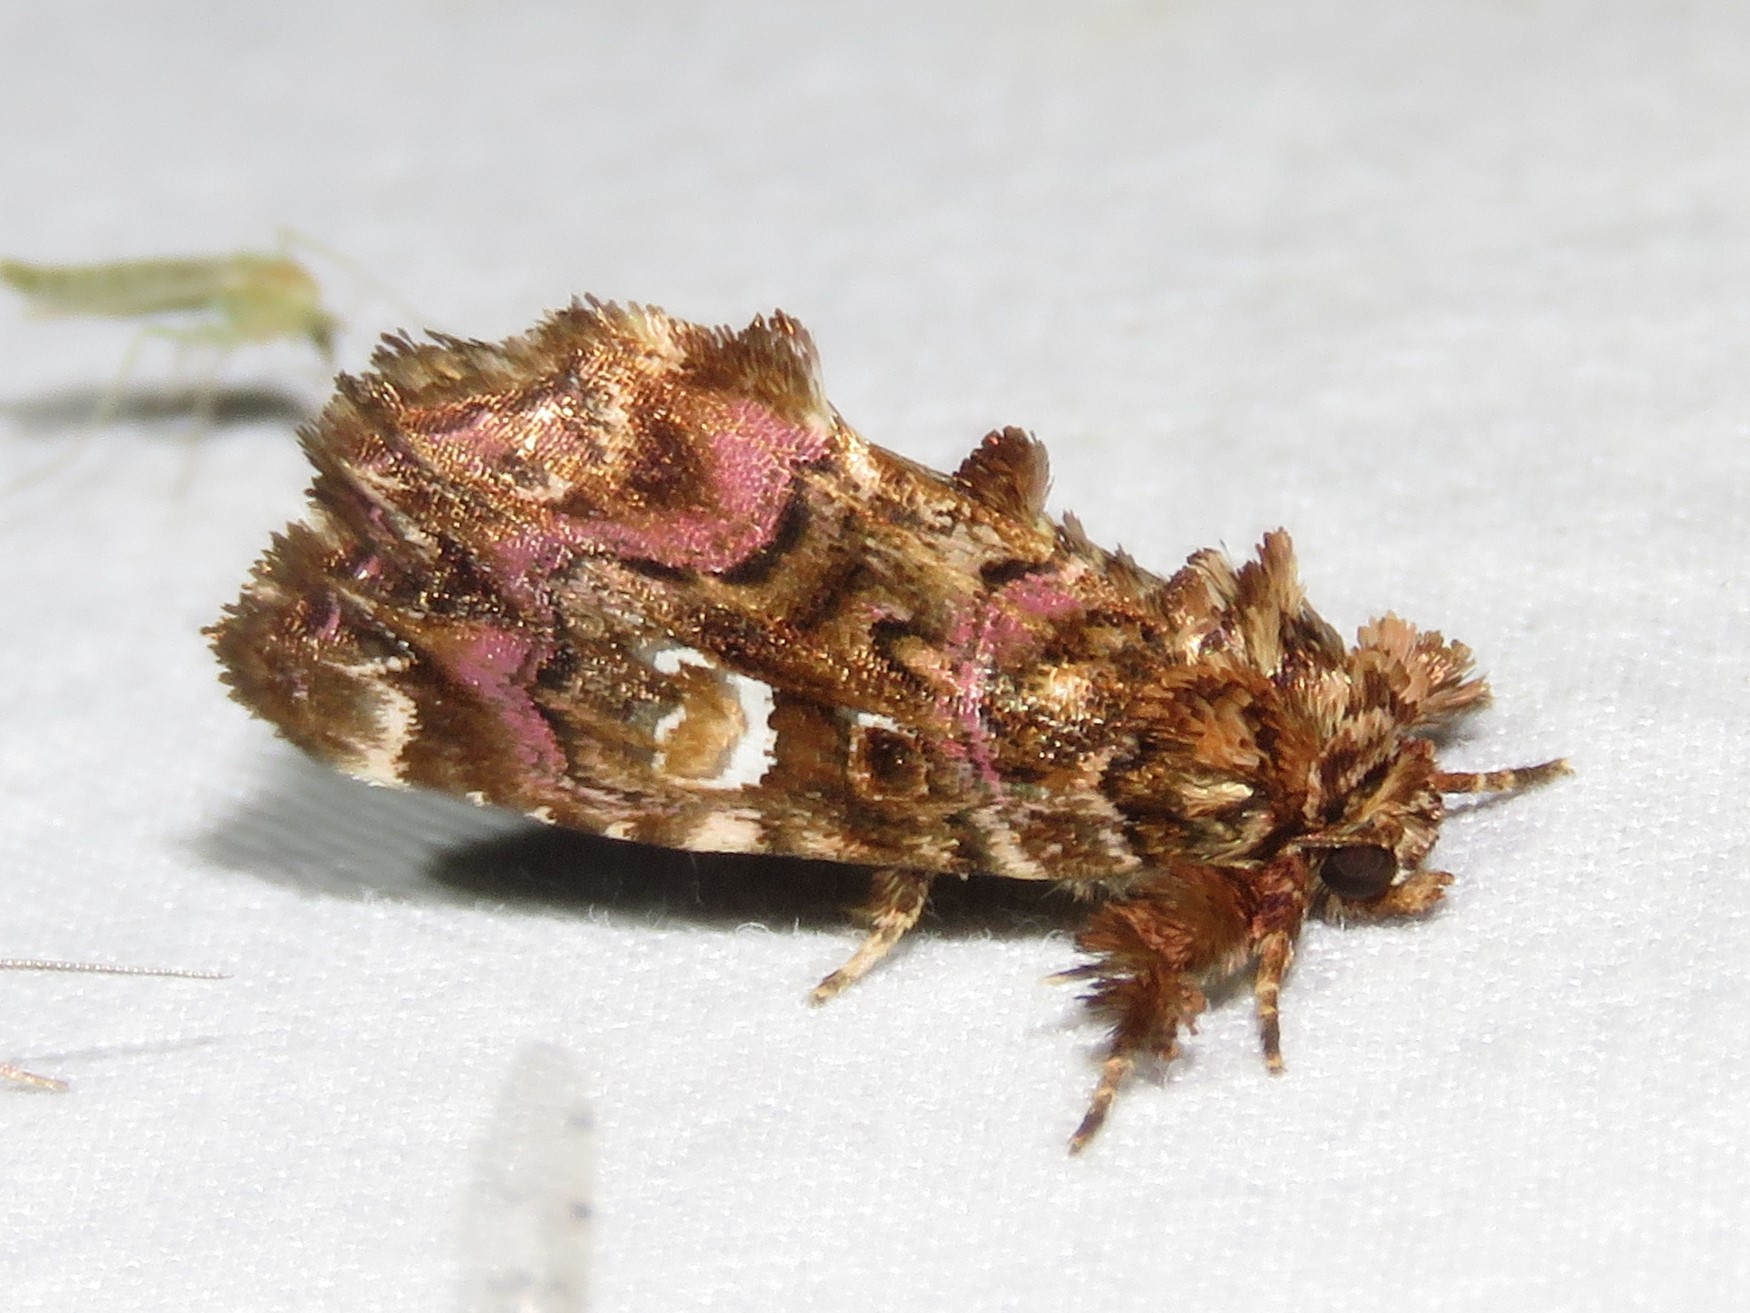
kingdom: Animalia
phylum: Arthropoda
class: Insecta
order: Lepidoptera
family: Noctuidae
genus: Callopistria
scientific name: Callopistria mollissima
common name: Pink-shaded fern moth
